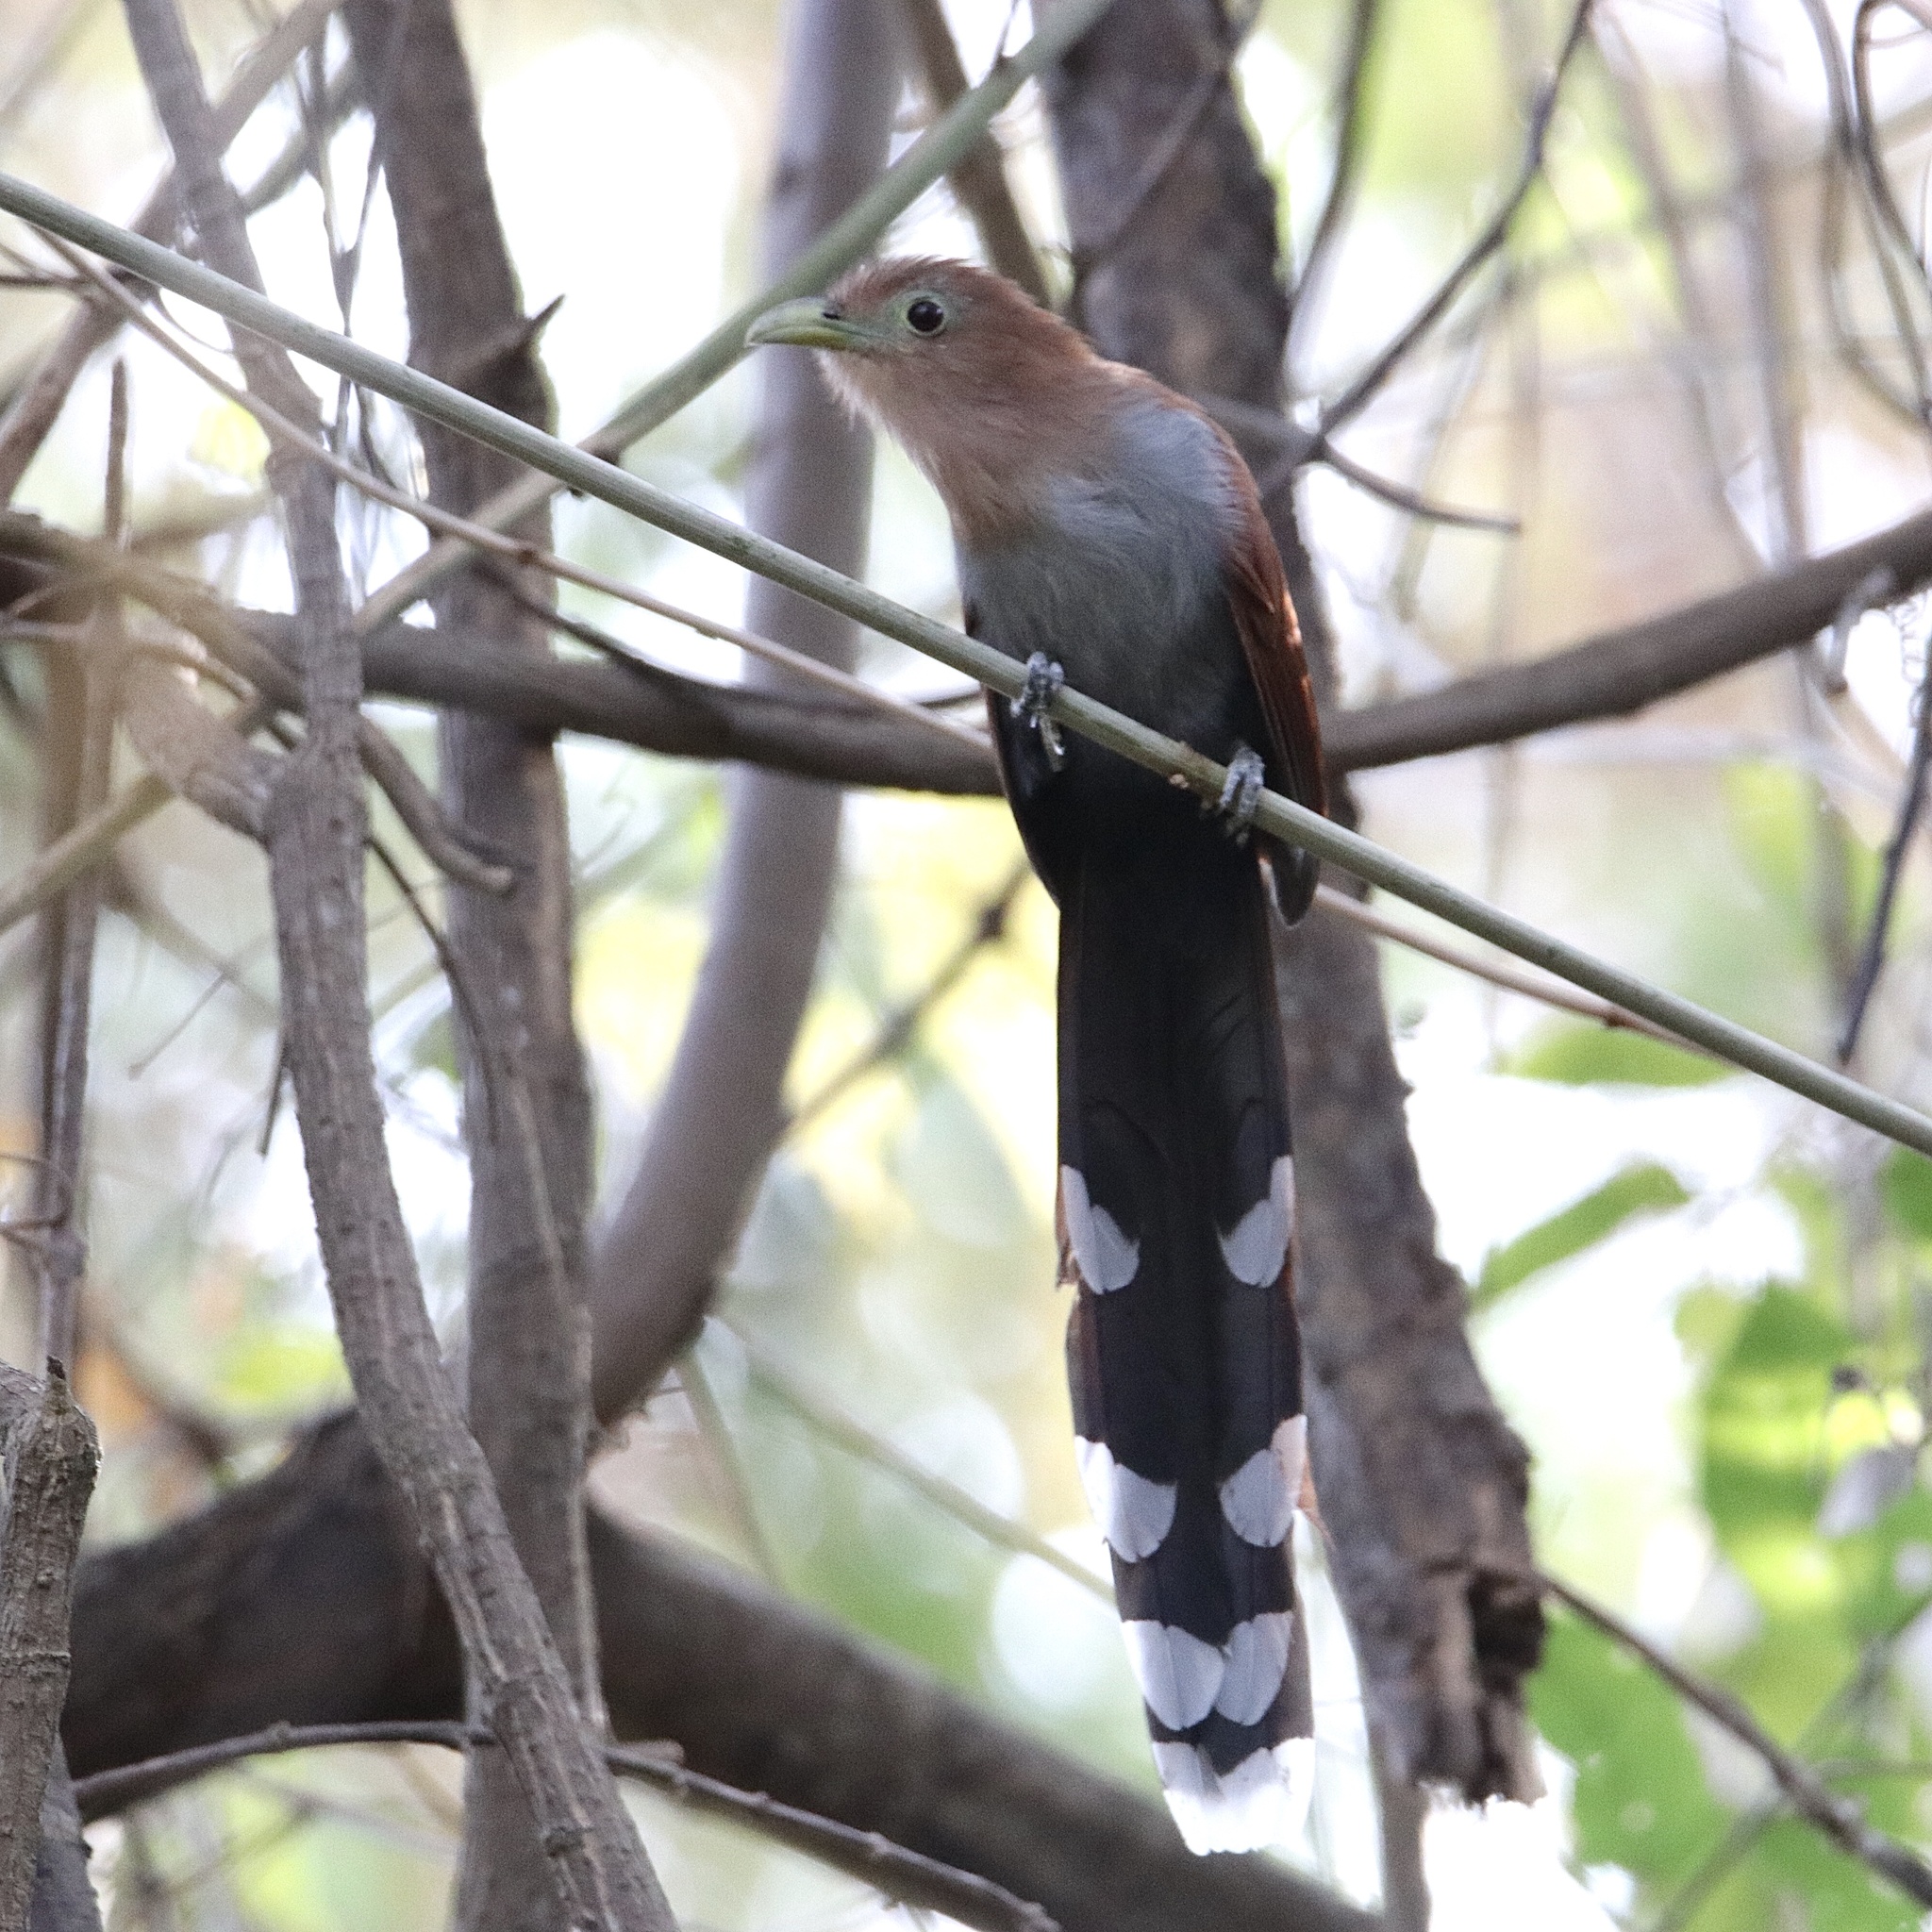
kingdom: Animalia
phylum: Chordata
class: Aves
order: Cuculiformes
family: Cuculidae
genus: Piaya
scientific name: Piaya cayana
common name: Squirrel cuckoo
